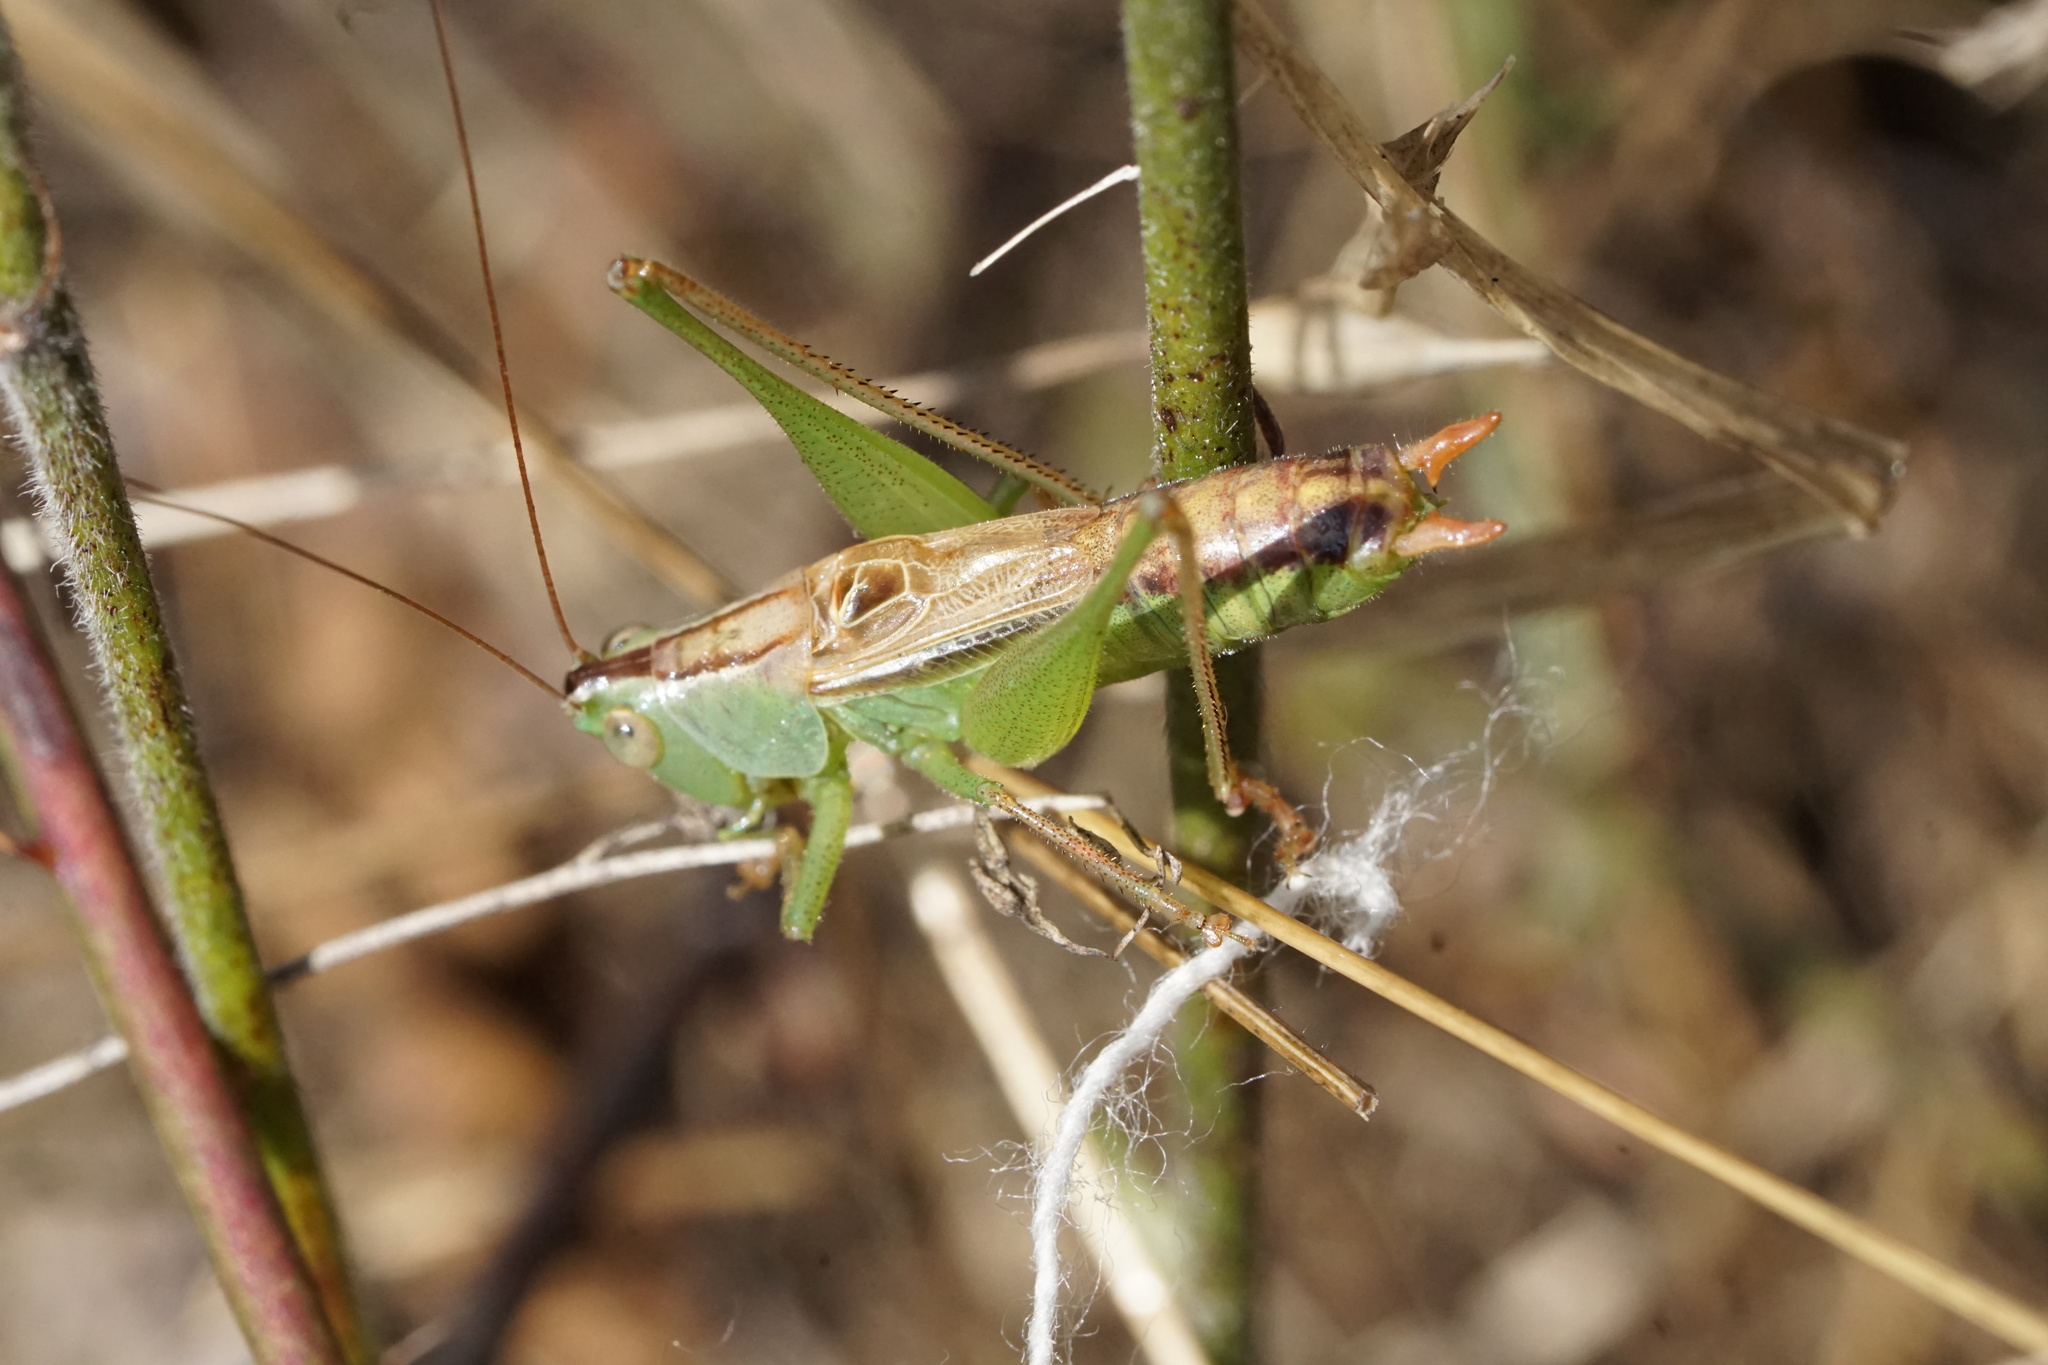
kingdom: Animalia
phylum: Arthropoda
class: Insecta
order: Orthoptera
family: Tettigoniidae
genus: Conocephalus
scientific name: Conocephalus strictus
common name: Straight-lanced katydid
